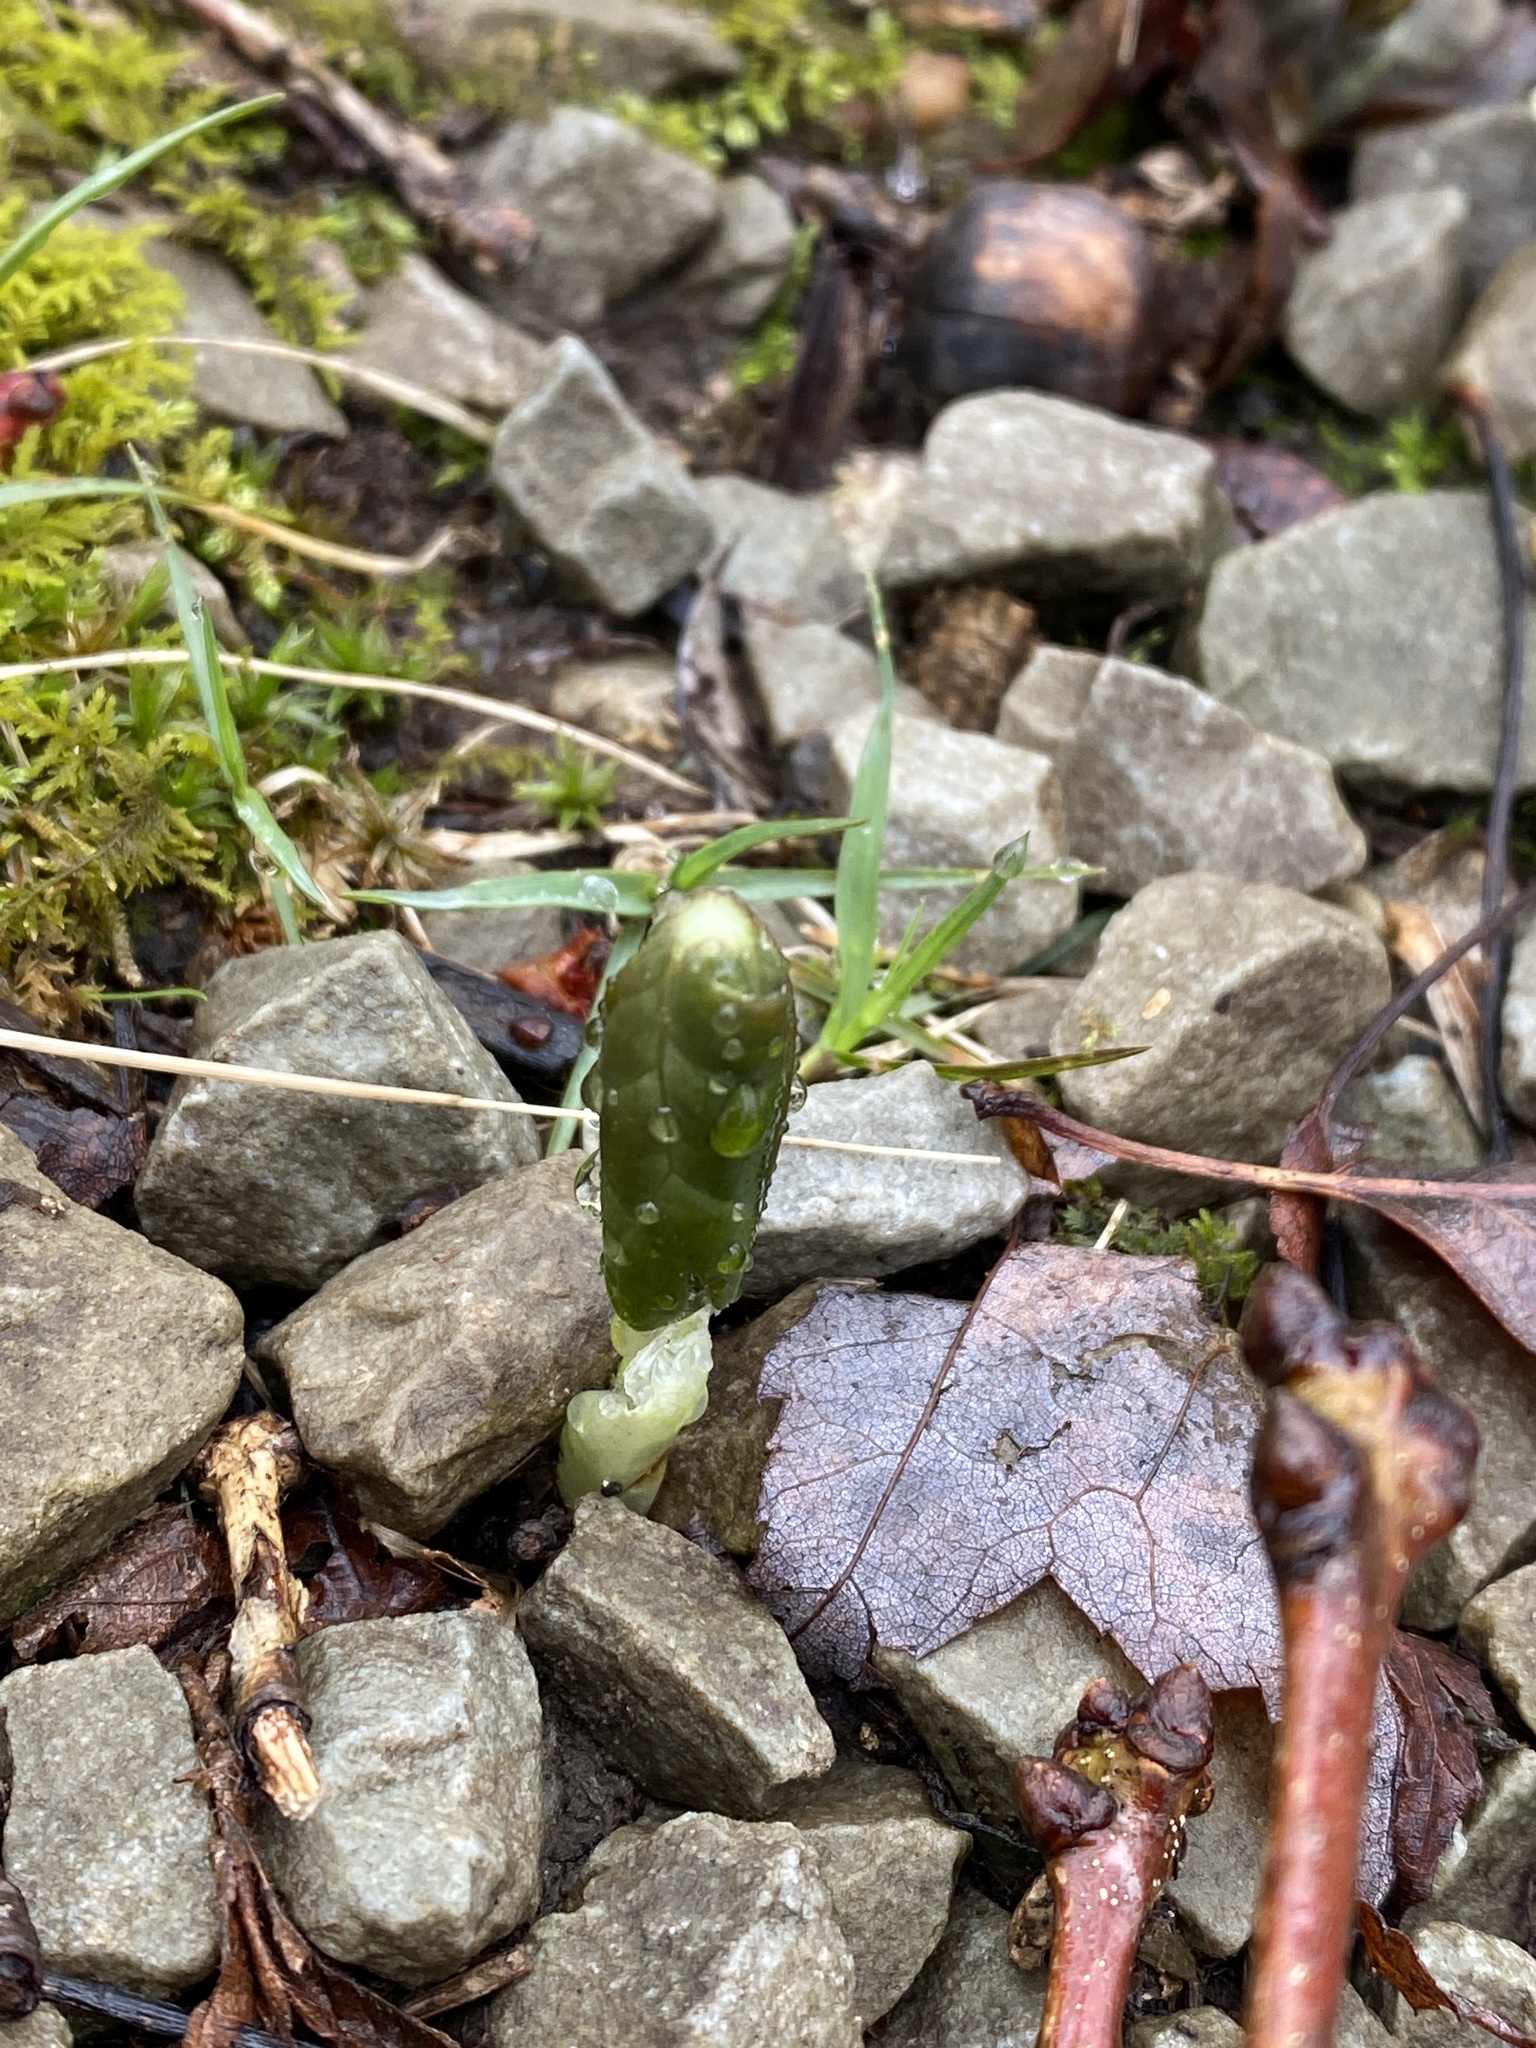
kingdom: Plantae
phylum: Tracheophyta
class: Magnoliopsida
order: Ranunculales
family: Berberidaceae
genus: Podophyllum
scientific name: Podophyllum peltatum
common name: Wild mandrake
